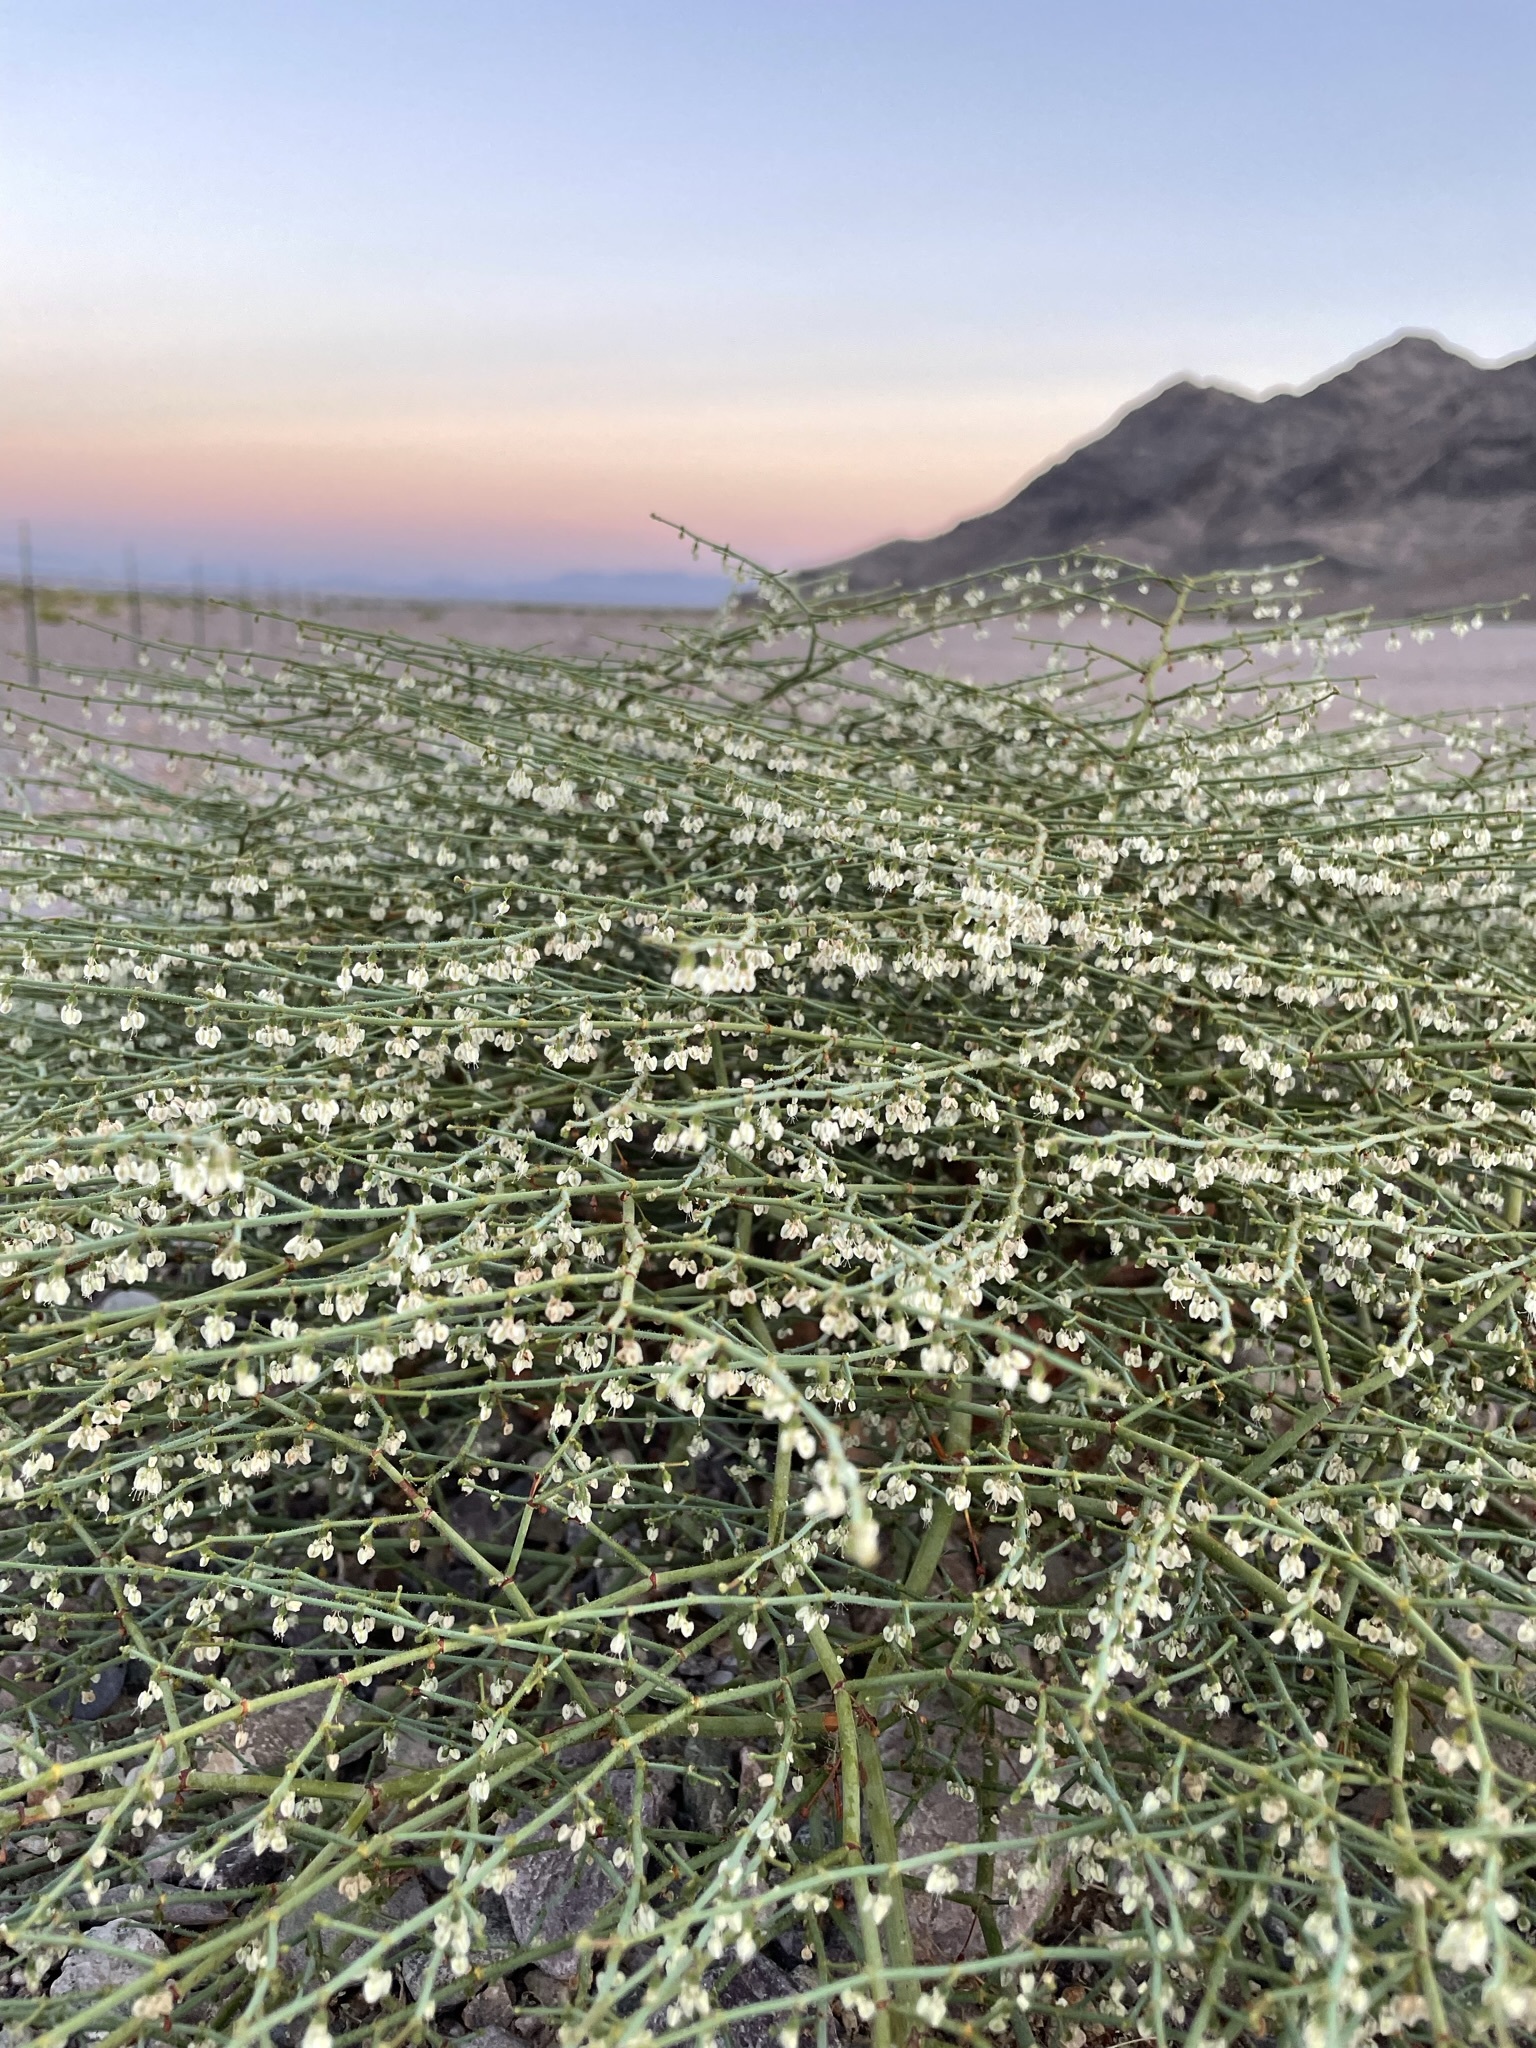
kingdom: Plantae
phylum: Tracheophyta
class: Magnoliopsida
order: Caryophyllales
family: Polygonaceae
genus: Eriogonum
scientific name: Eriogonum brachypodum
